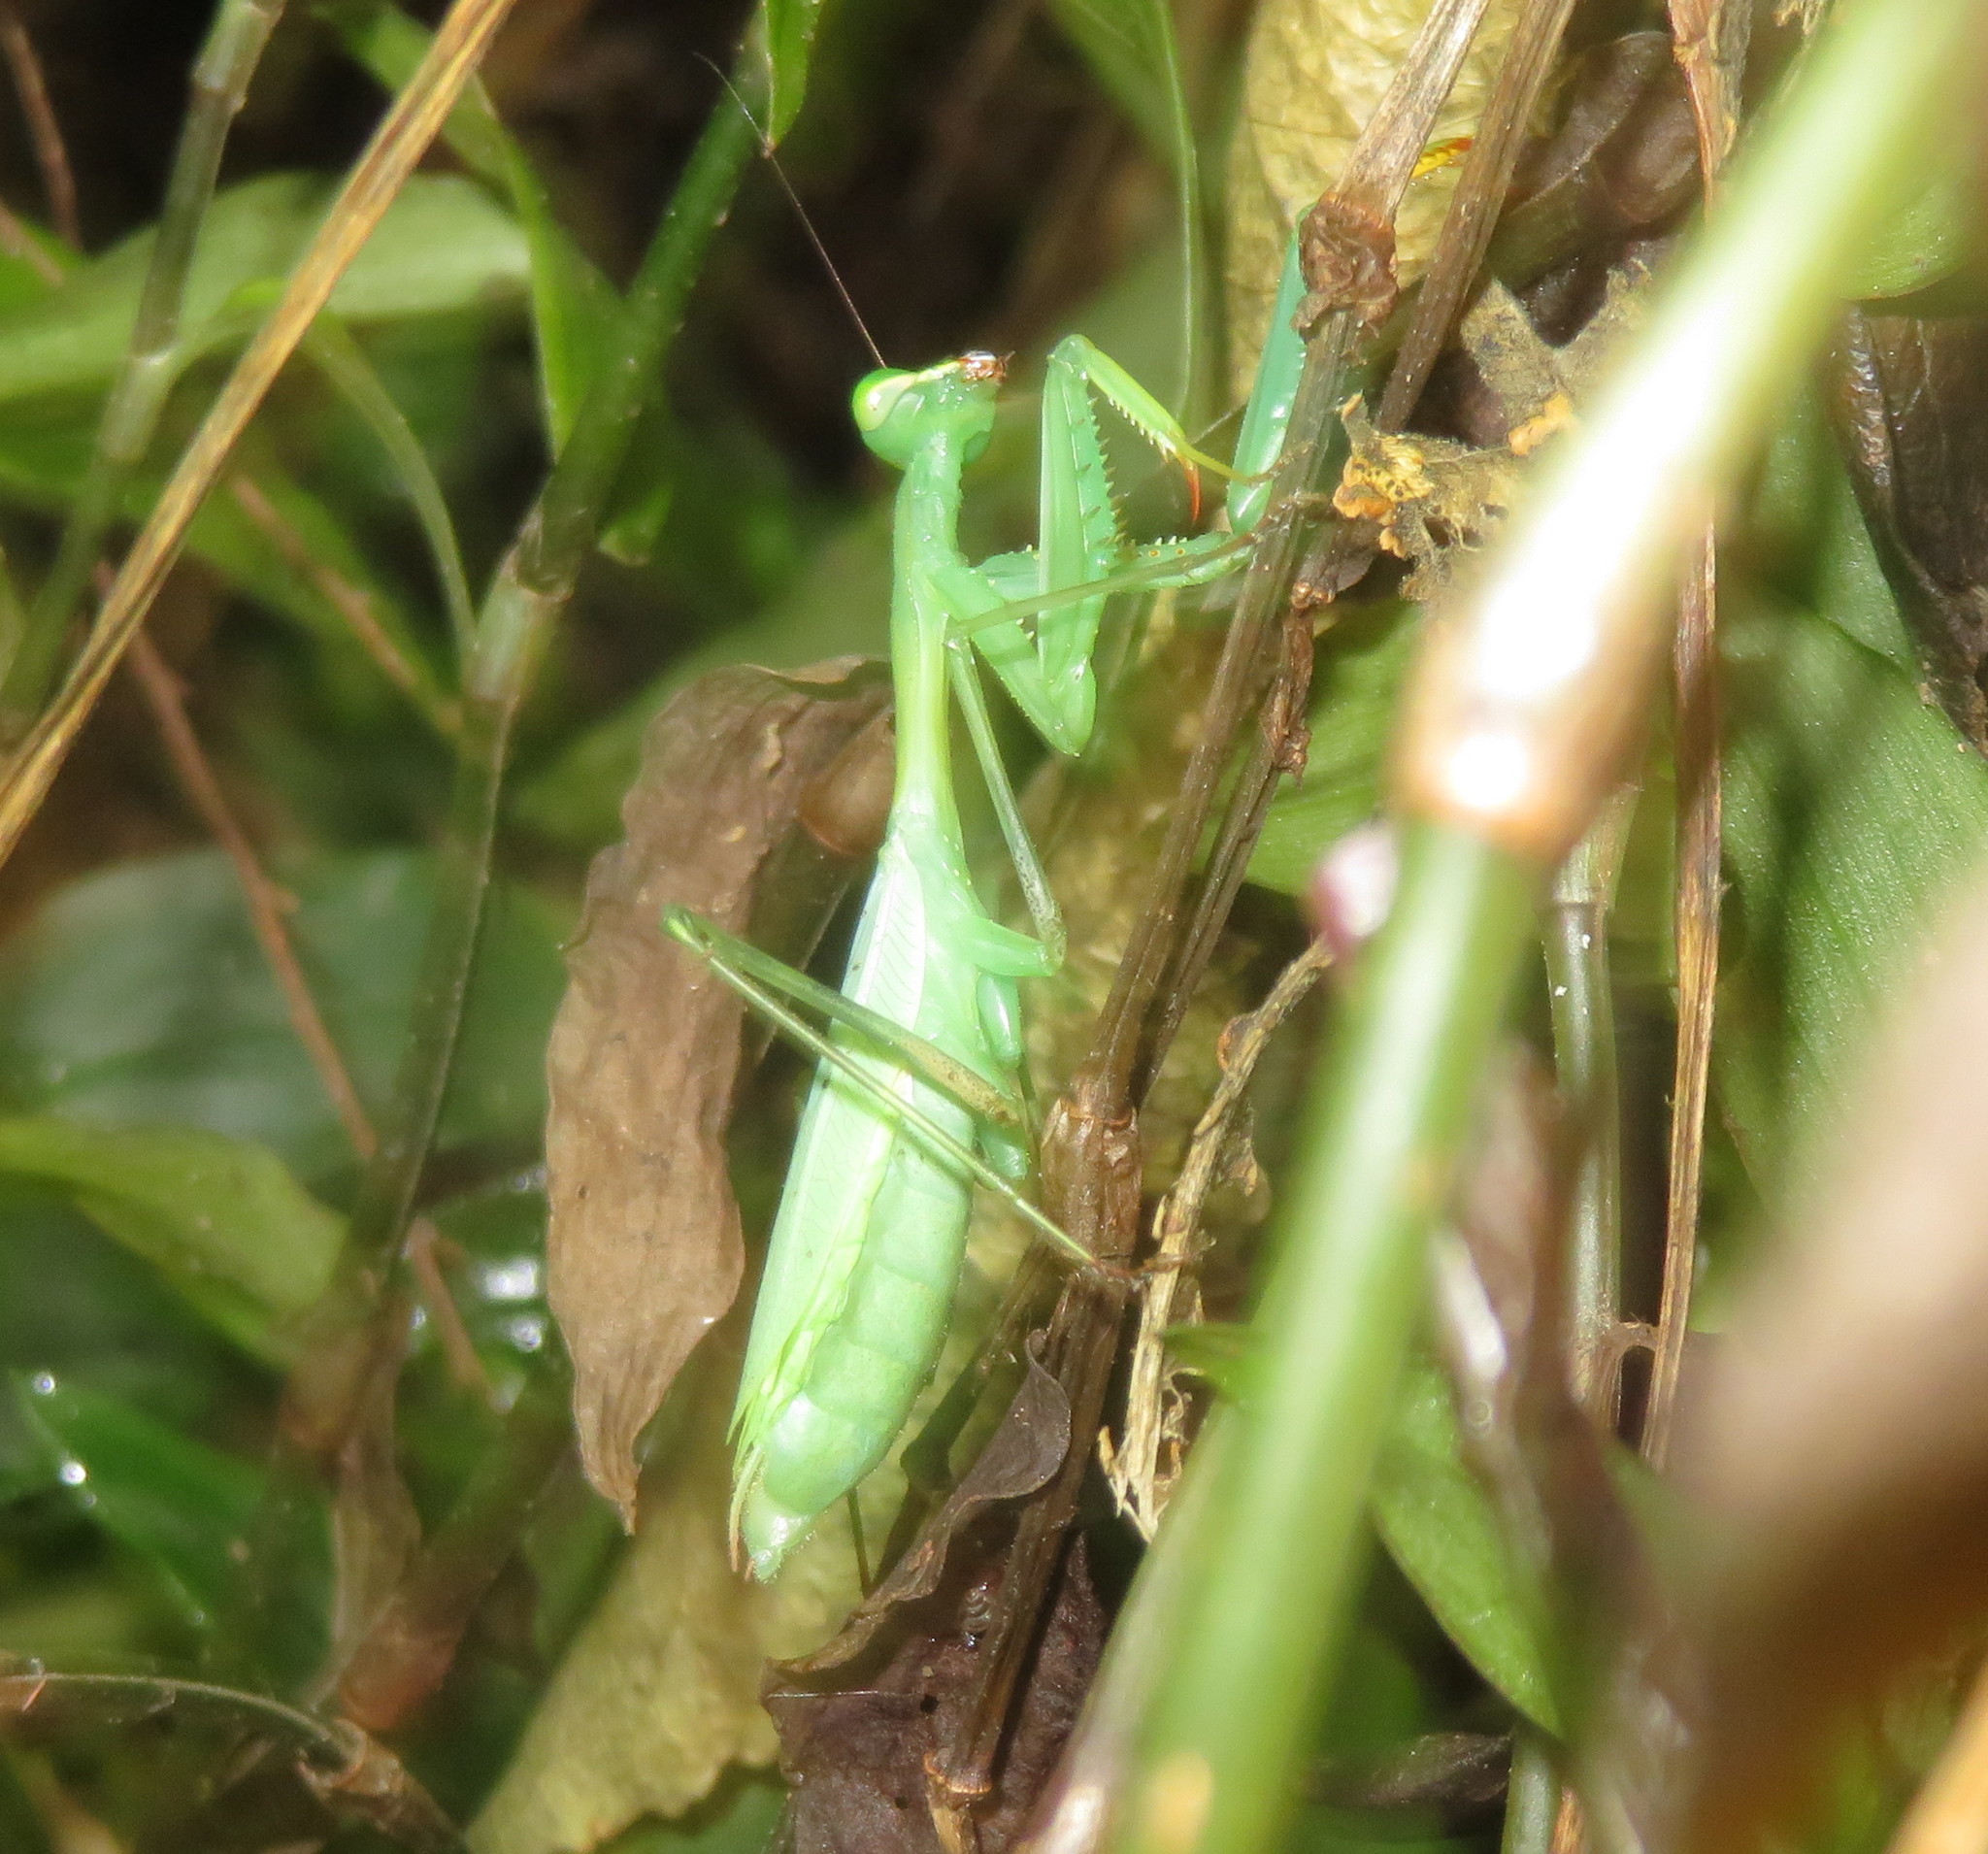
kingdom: Animalia
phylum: Arthropoda
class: Insecta
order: Mantodea
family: Miomantidae
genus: Miomantis
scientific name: Miomantis caffra
